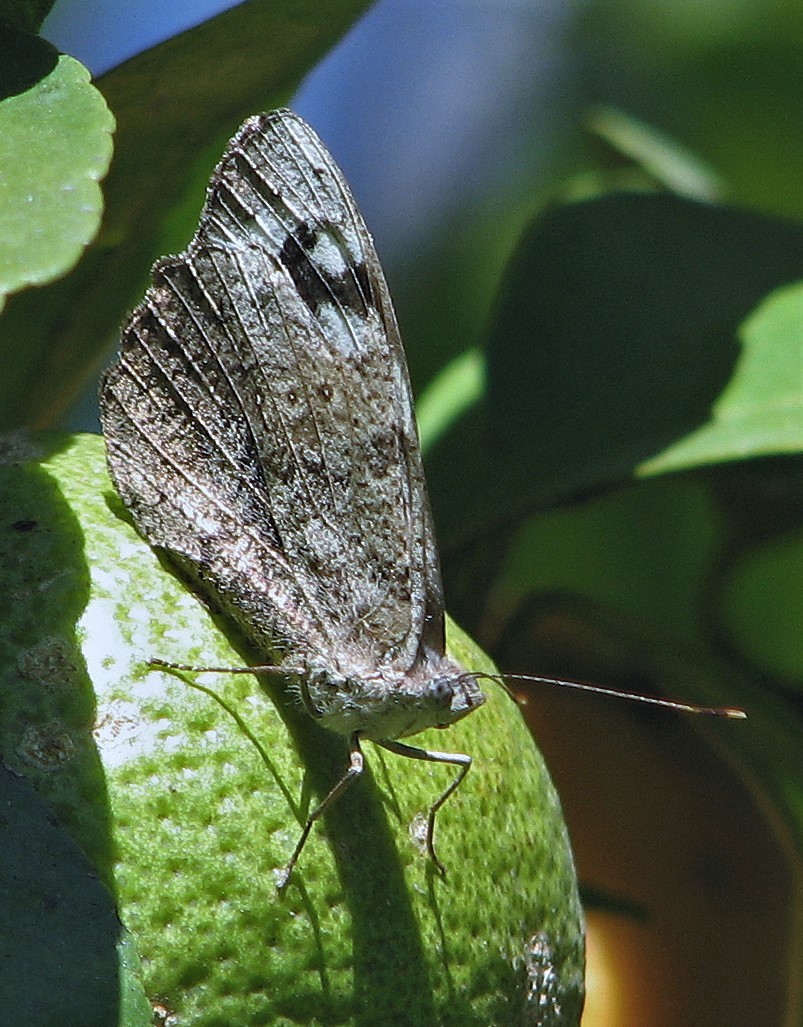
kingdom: Animalia
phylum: Arthropoda
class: Insecta
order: Lepidoptera
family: Nymphalidae
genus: Eunica
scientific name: Eunica eburnea
